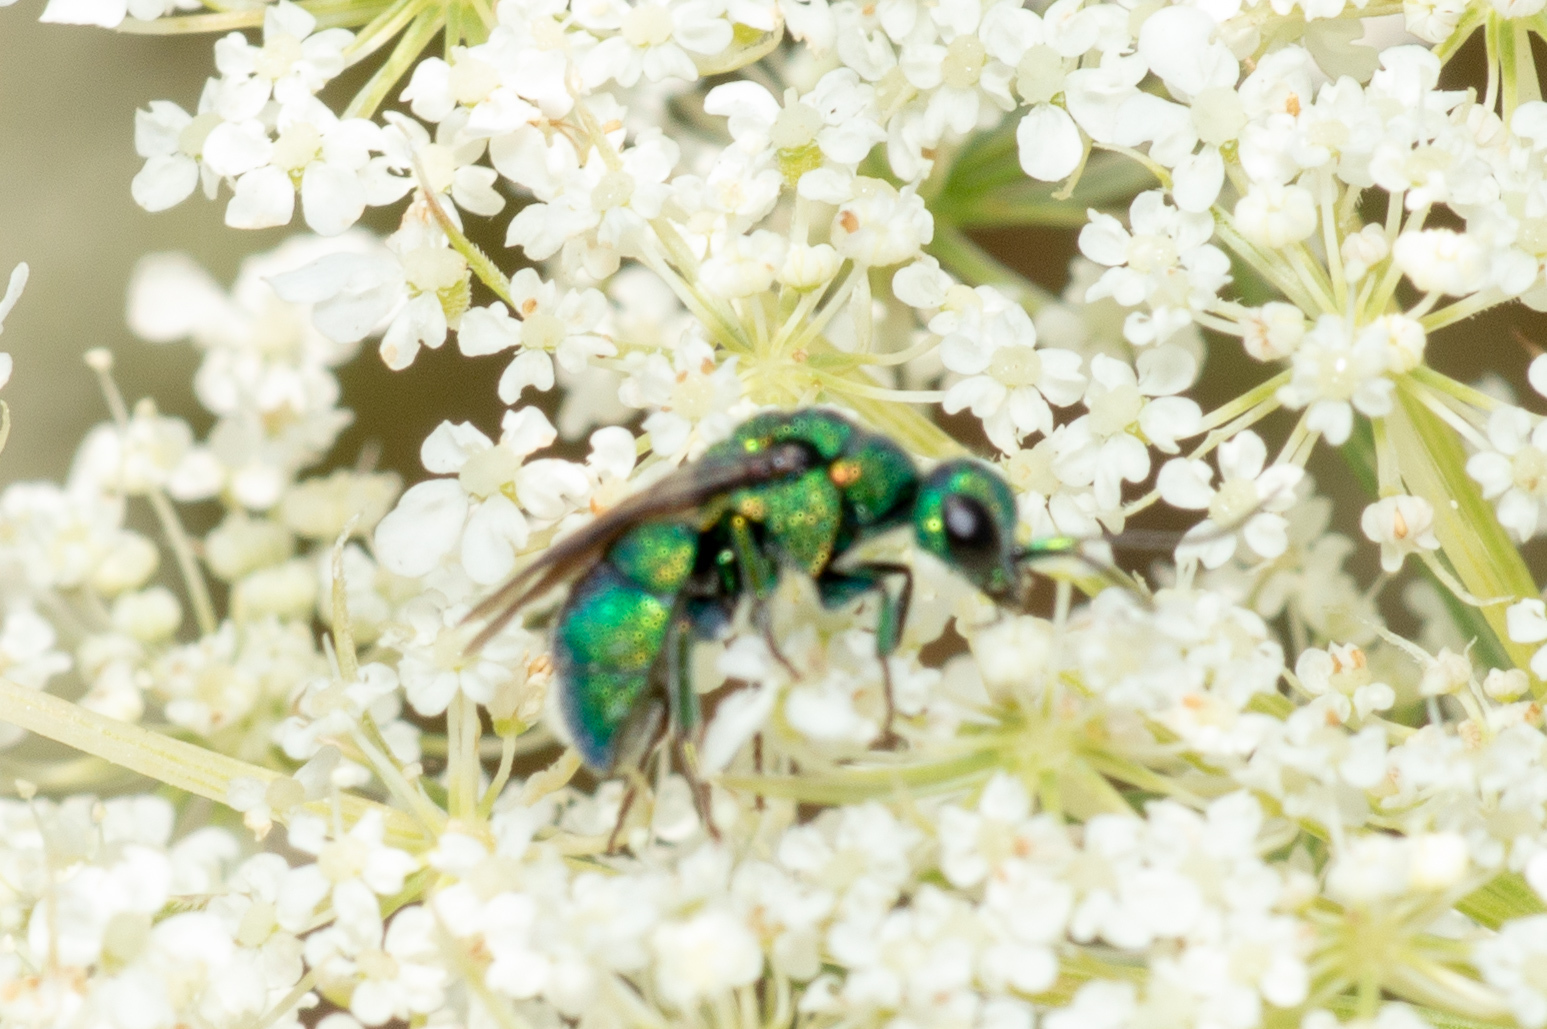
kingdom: Animalia
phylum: Arthropoda
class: Insecta
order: Hymenoptera
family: Chrysididae
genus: Holopyga
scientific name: Holopyga
